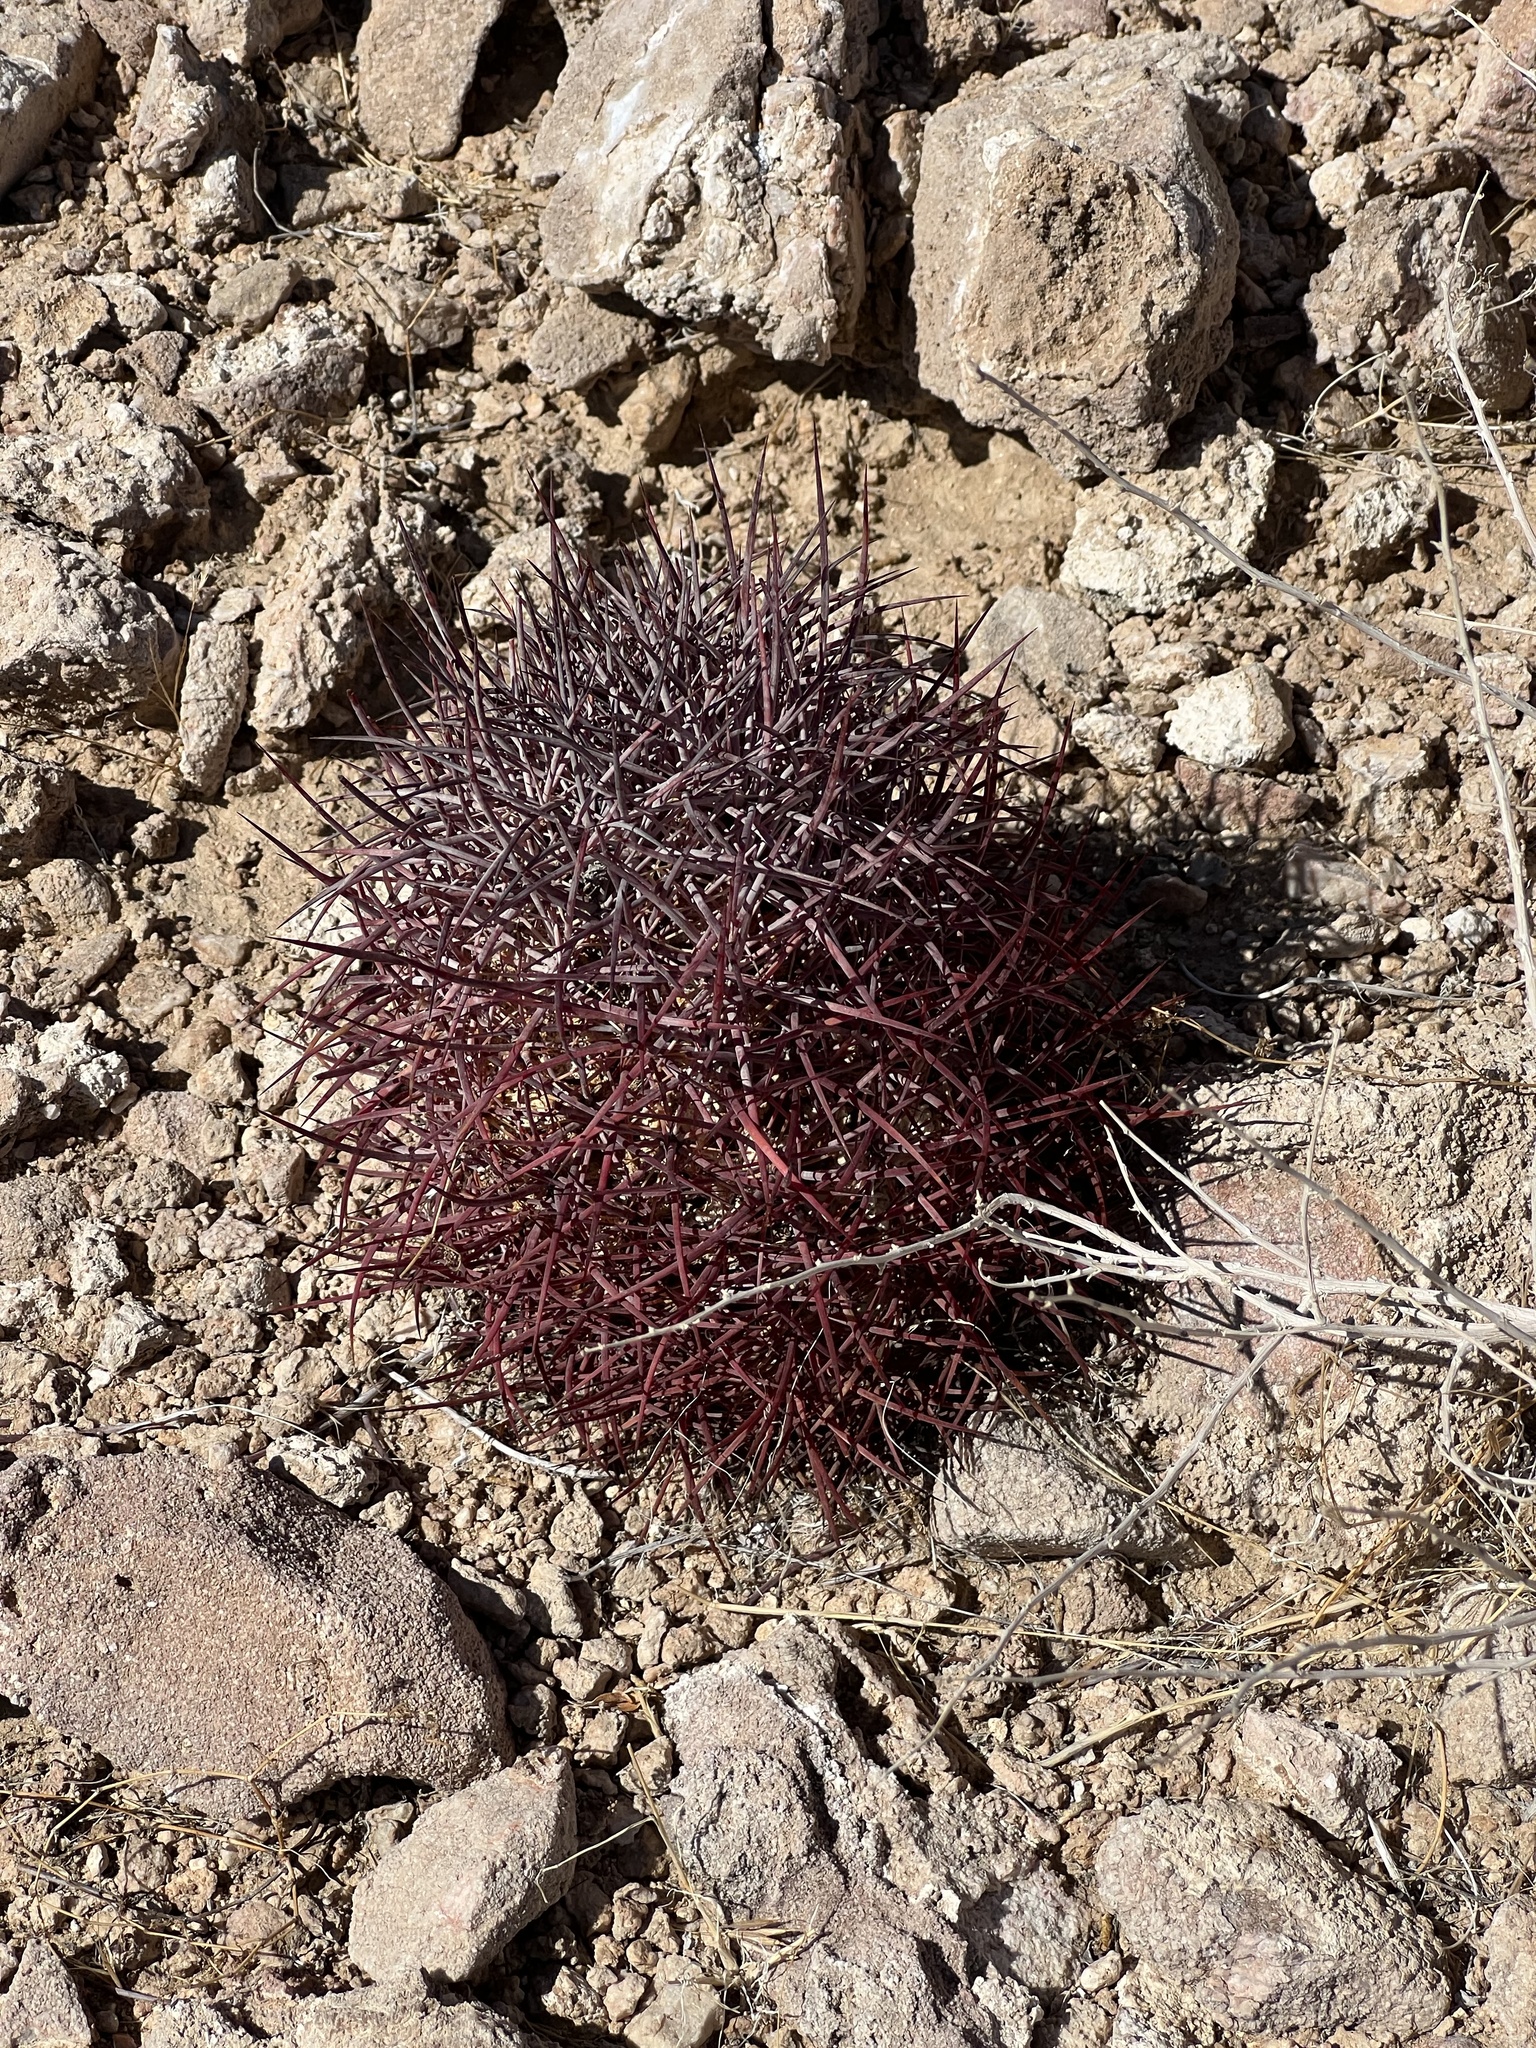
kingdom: Plantae
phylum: Tracheophyta
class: Magnoliopsida
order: Caryophyllales
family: Cactaceae
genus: Sclerocactus
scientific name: Sclerocactus johnsonii
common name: Eight-spine fishhook cactus
